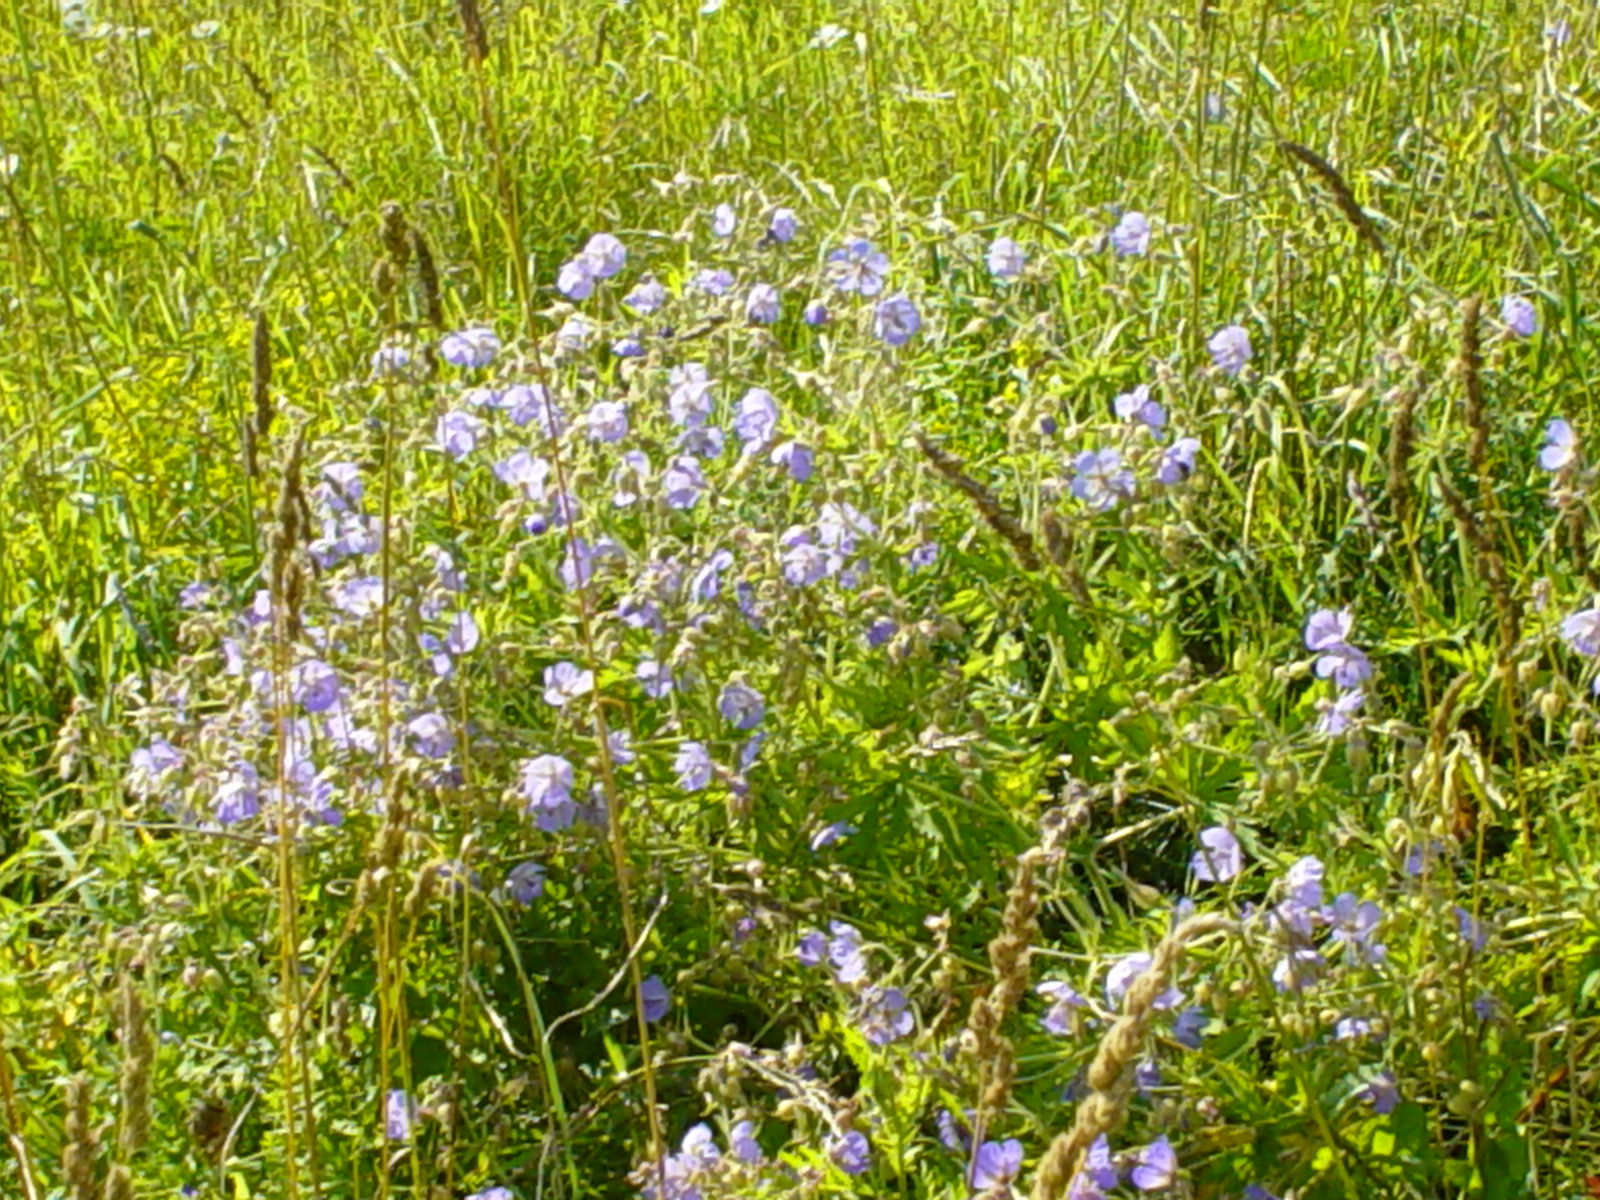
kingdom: Plantae
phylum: Tracheophyta
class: Magnoliopsida
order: Geraniales
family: Geraniaceae
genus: Geranium
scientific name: Geranium pratense
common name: Meadow crane's-bill
